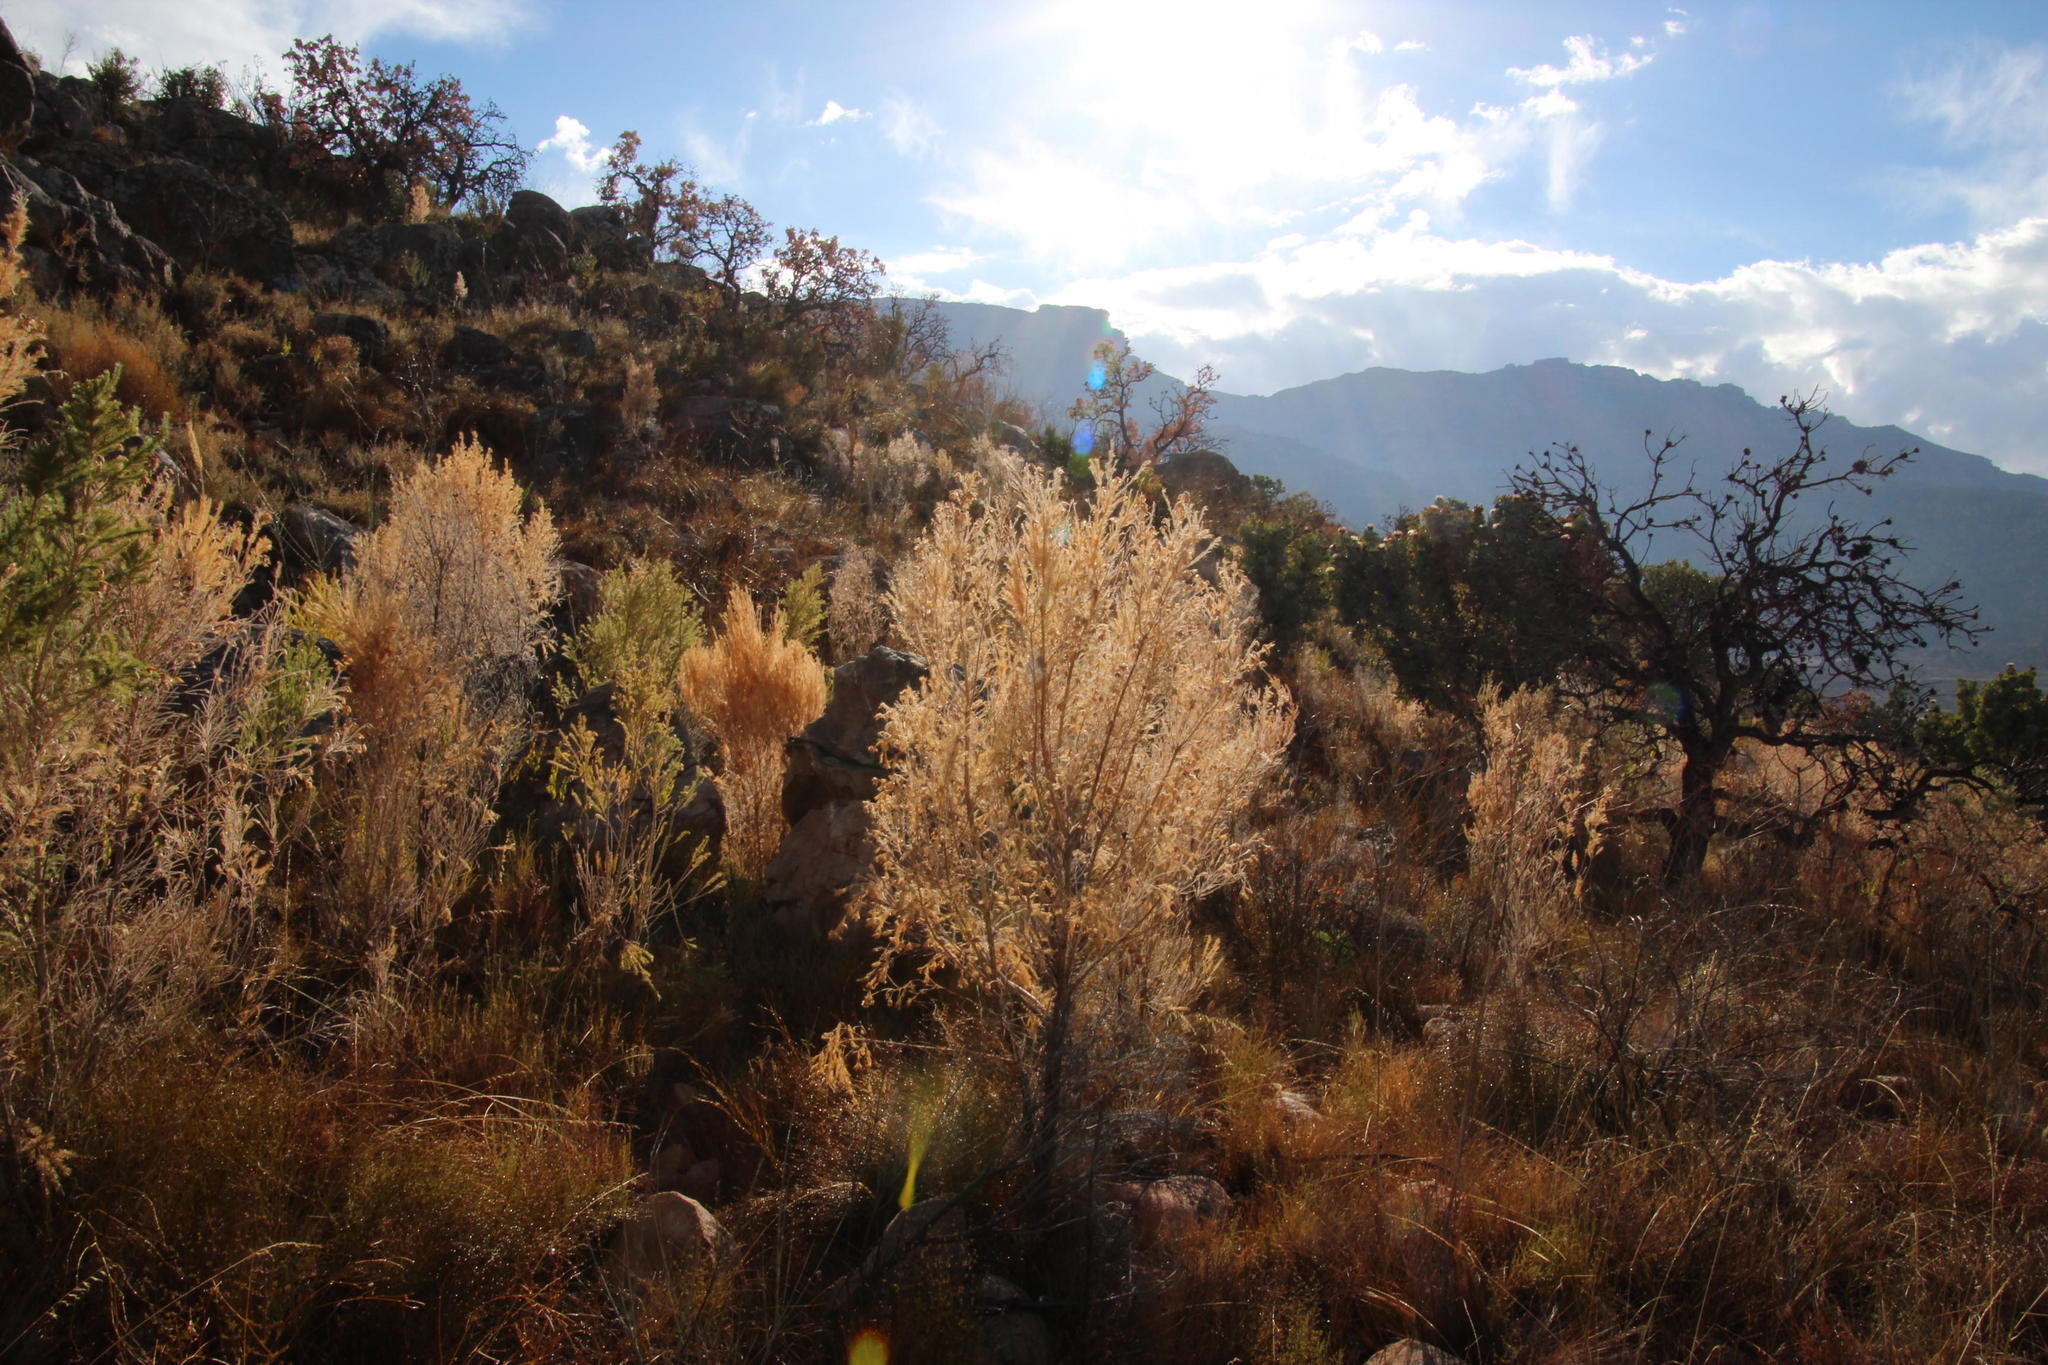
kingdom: Plantae
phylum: Tracheophyta
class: Magnoliopsida
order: Fabales
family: Fabaceae
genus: Aspalathus
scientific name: Aspalathus decora
